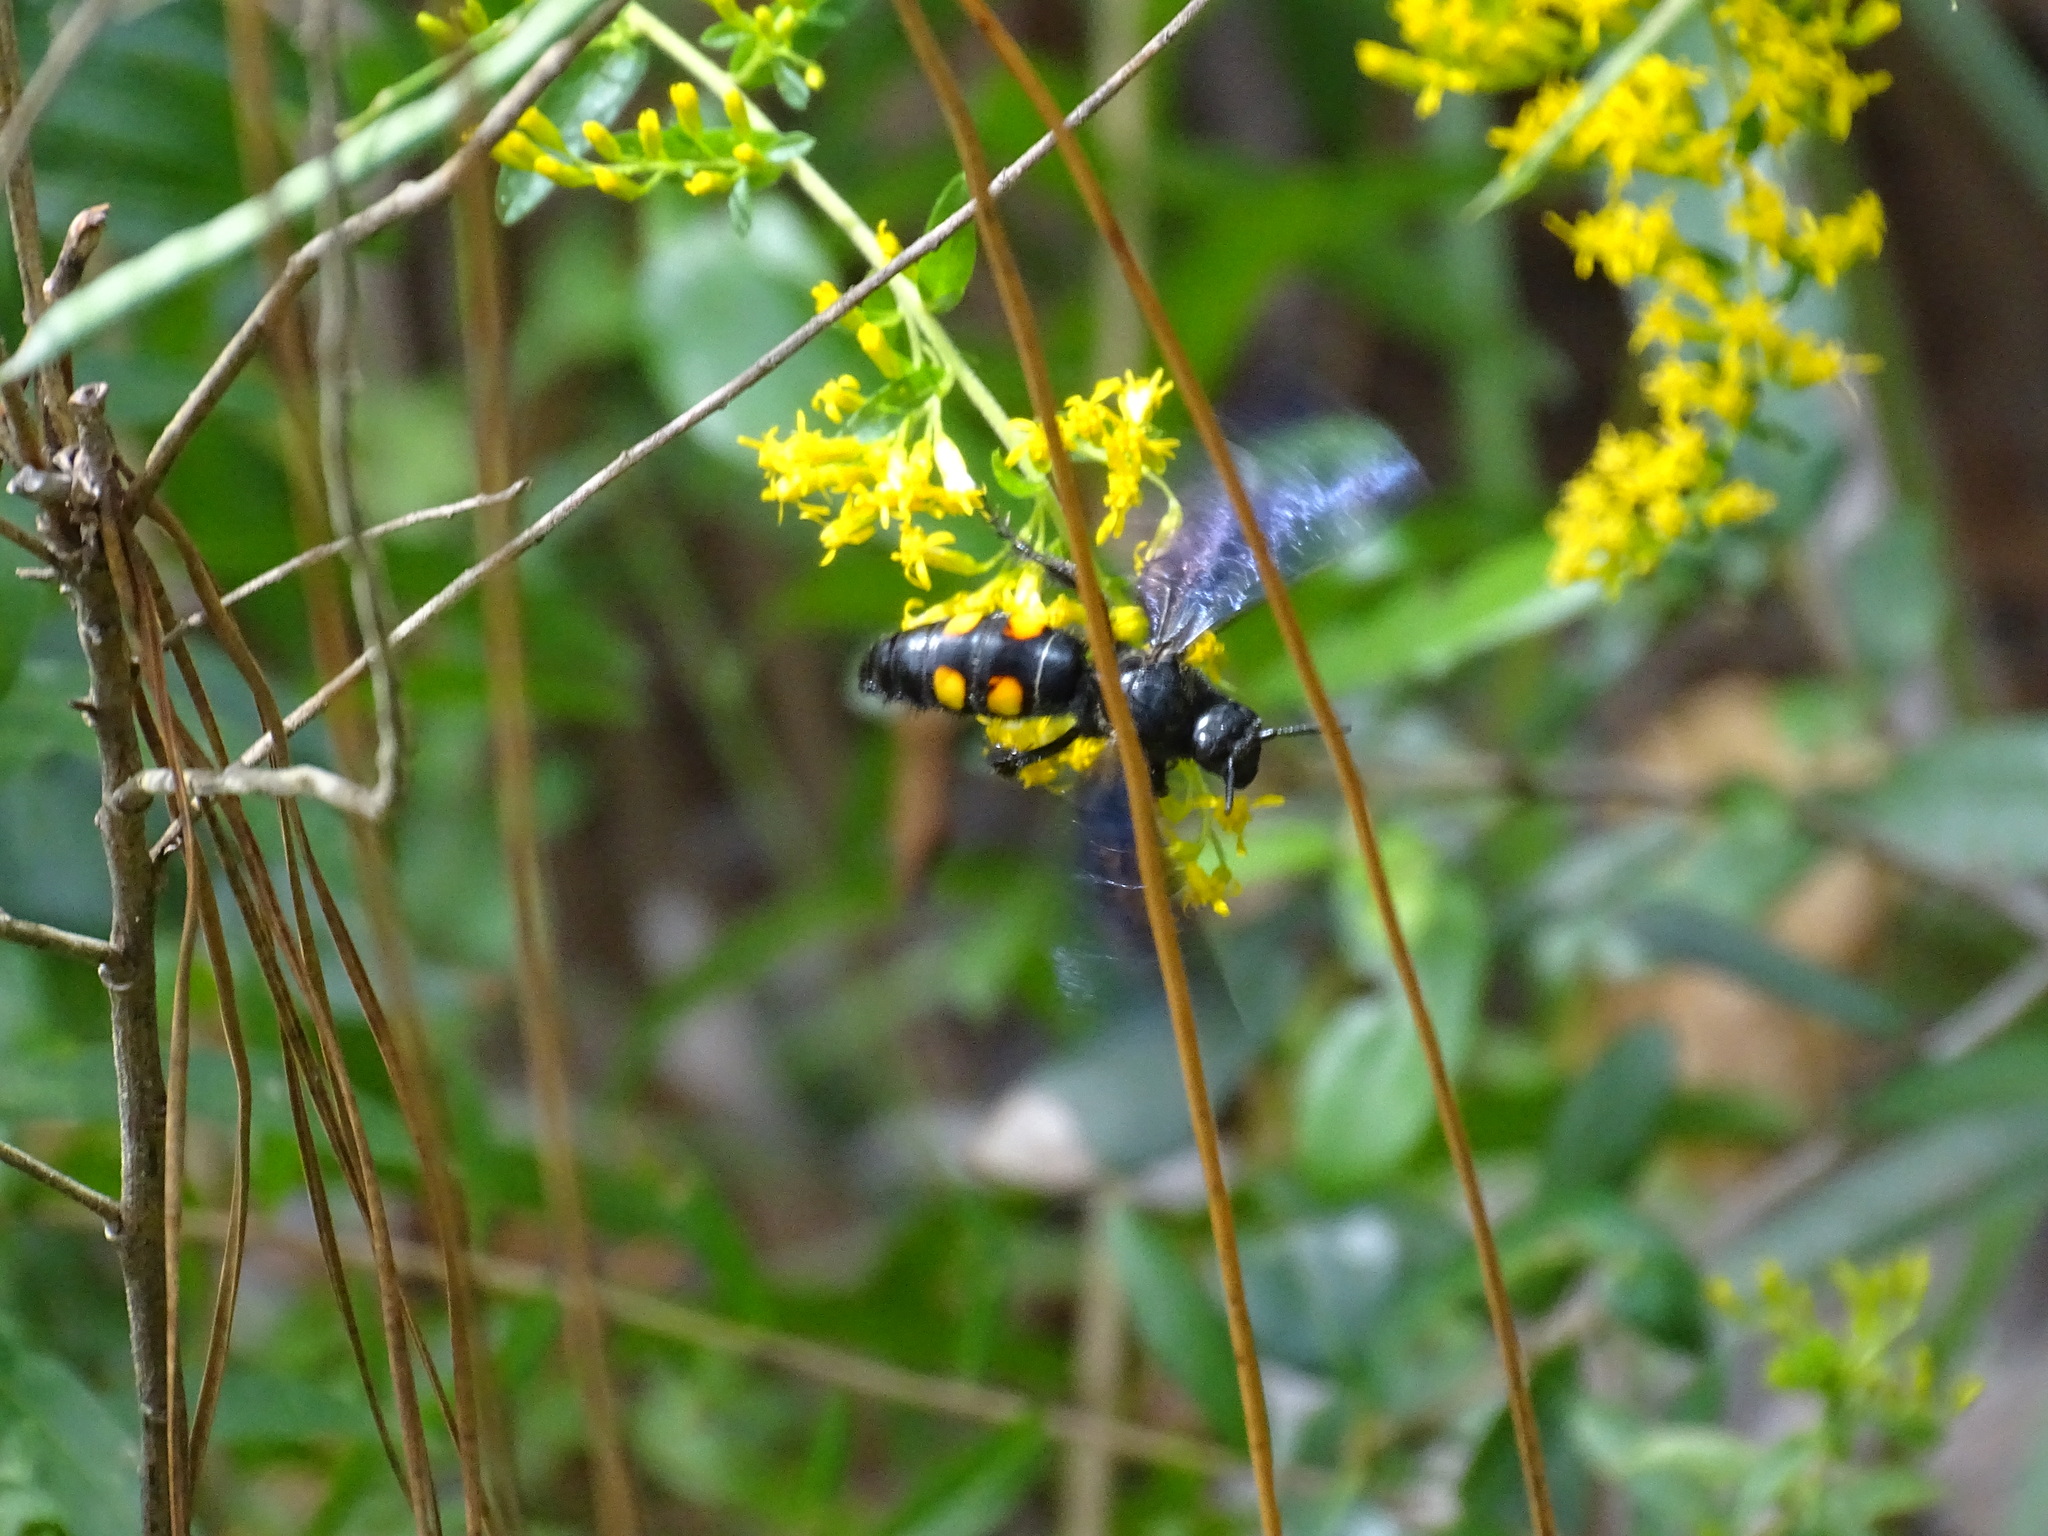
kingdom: Animalia
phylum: Arthropoda
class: Insecta
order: Hymenoptera
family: Scoliidae
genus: Pygodasis
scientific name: Pygodasis
